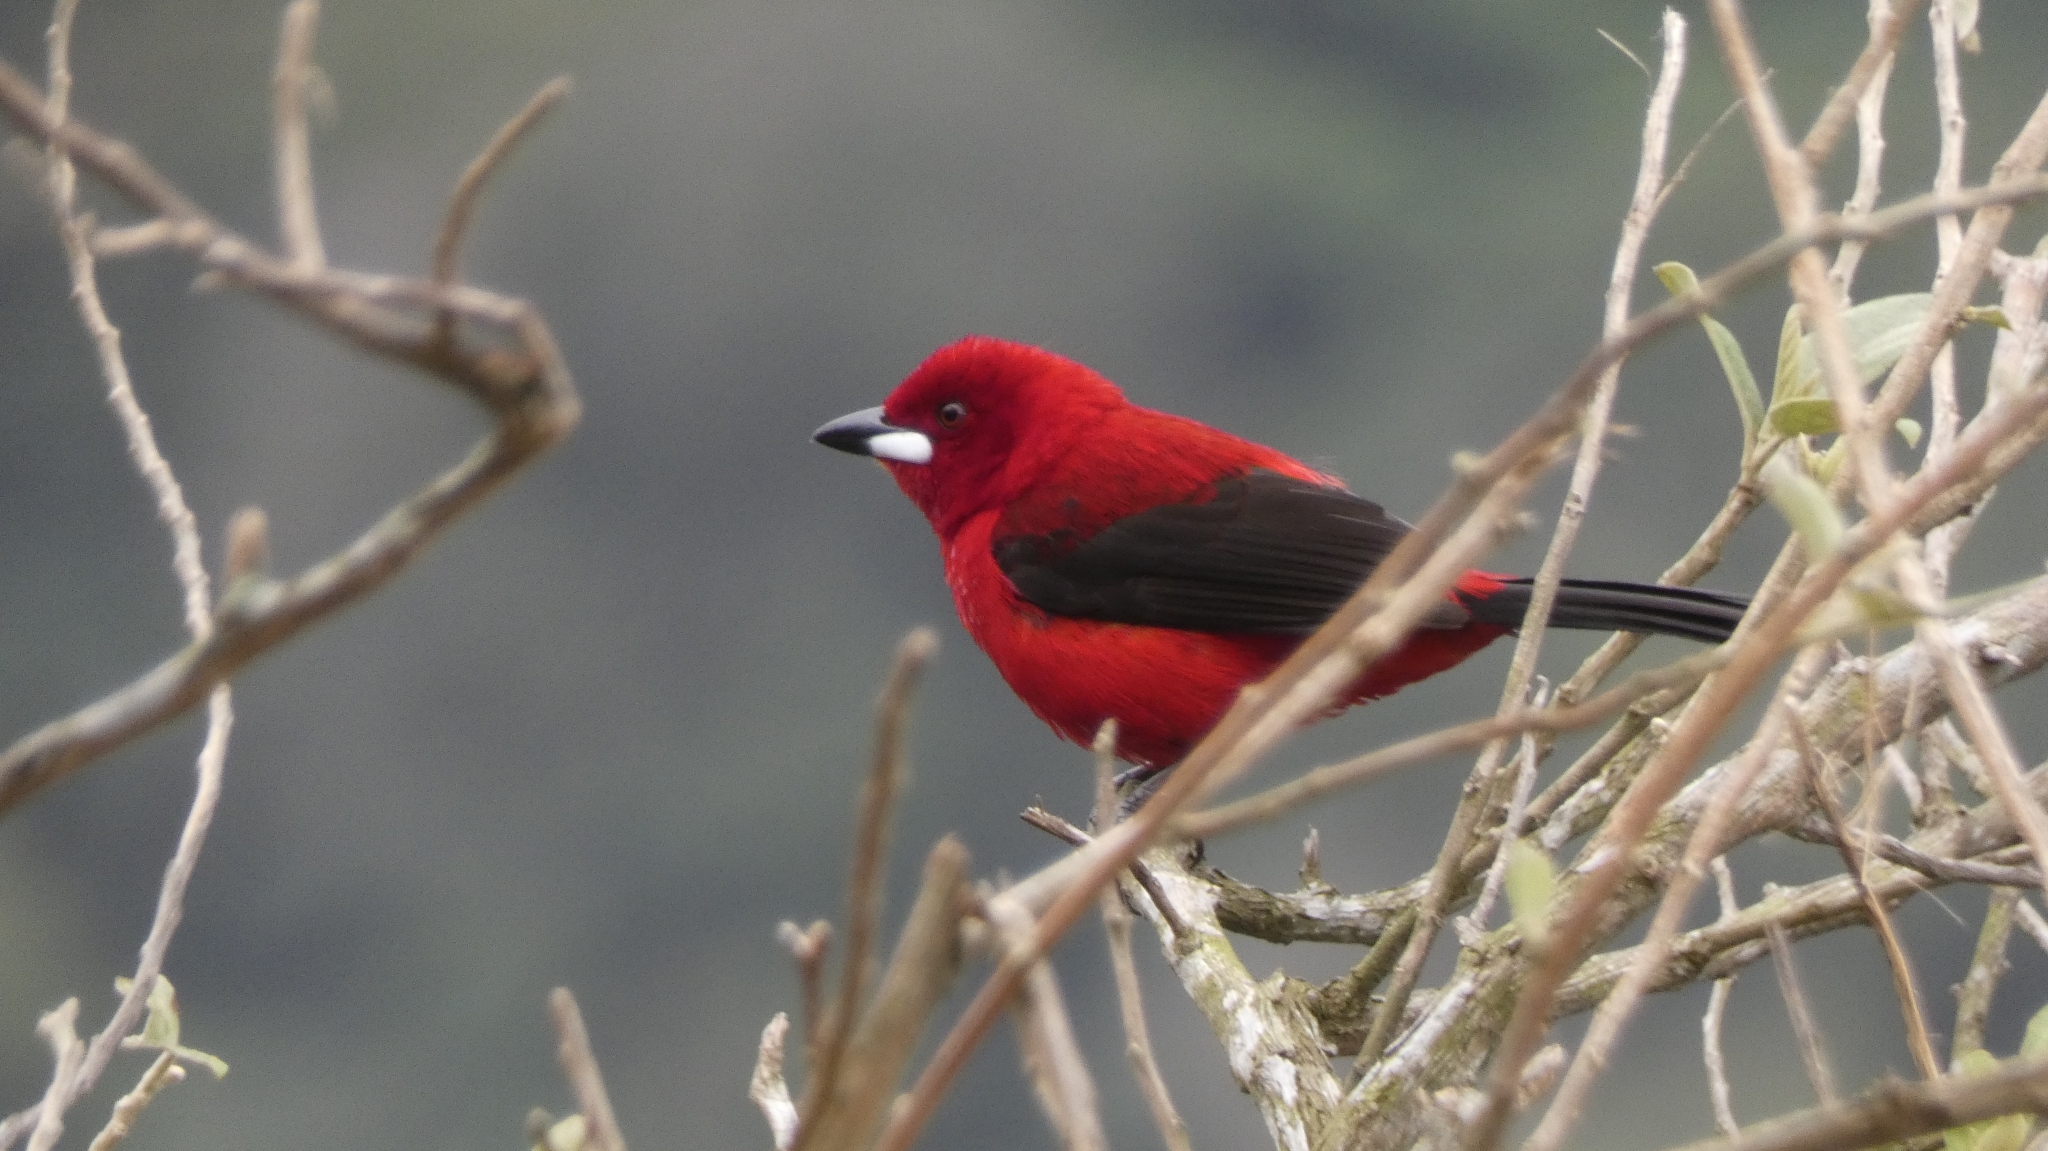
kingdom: Animalia
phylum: Chordata
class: Aves
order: Passeriformes
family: Thraupidae
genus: Ramphocelus
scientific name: Ramphocelus bresilia
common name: Brazilian tanager
